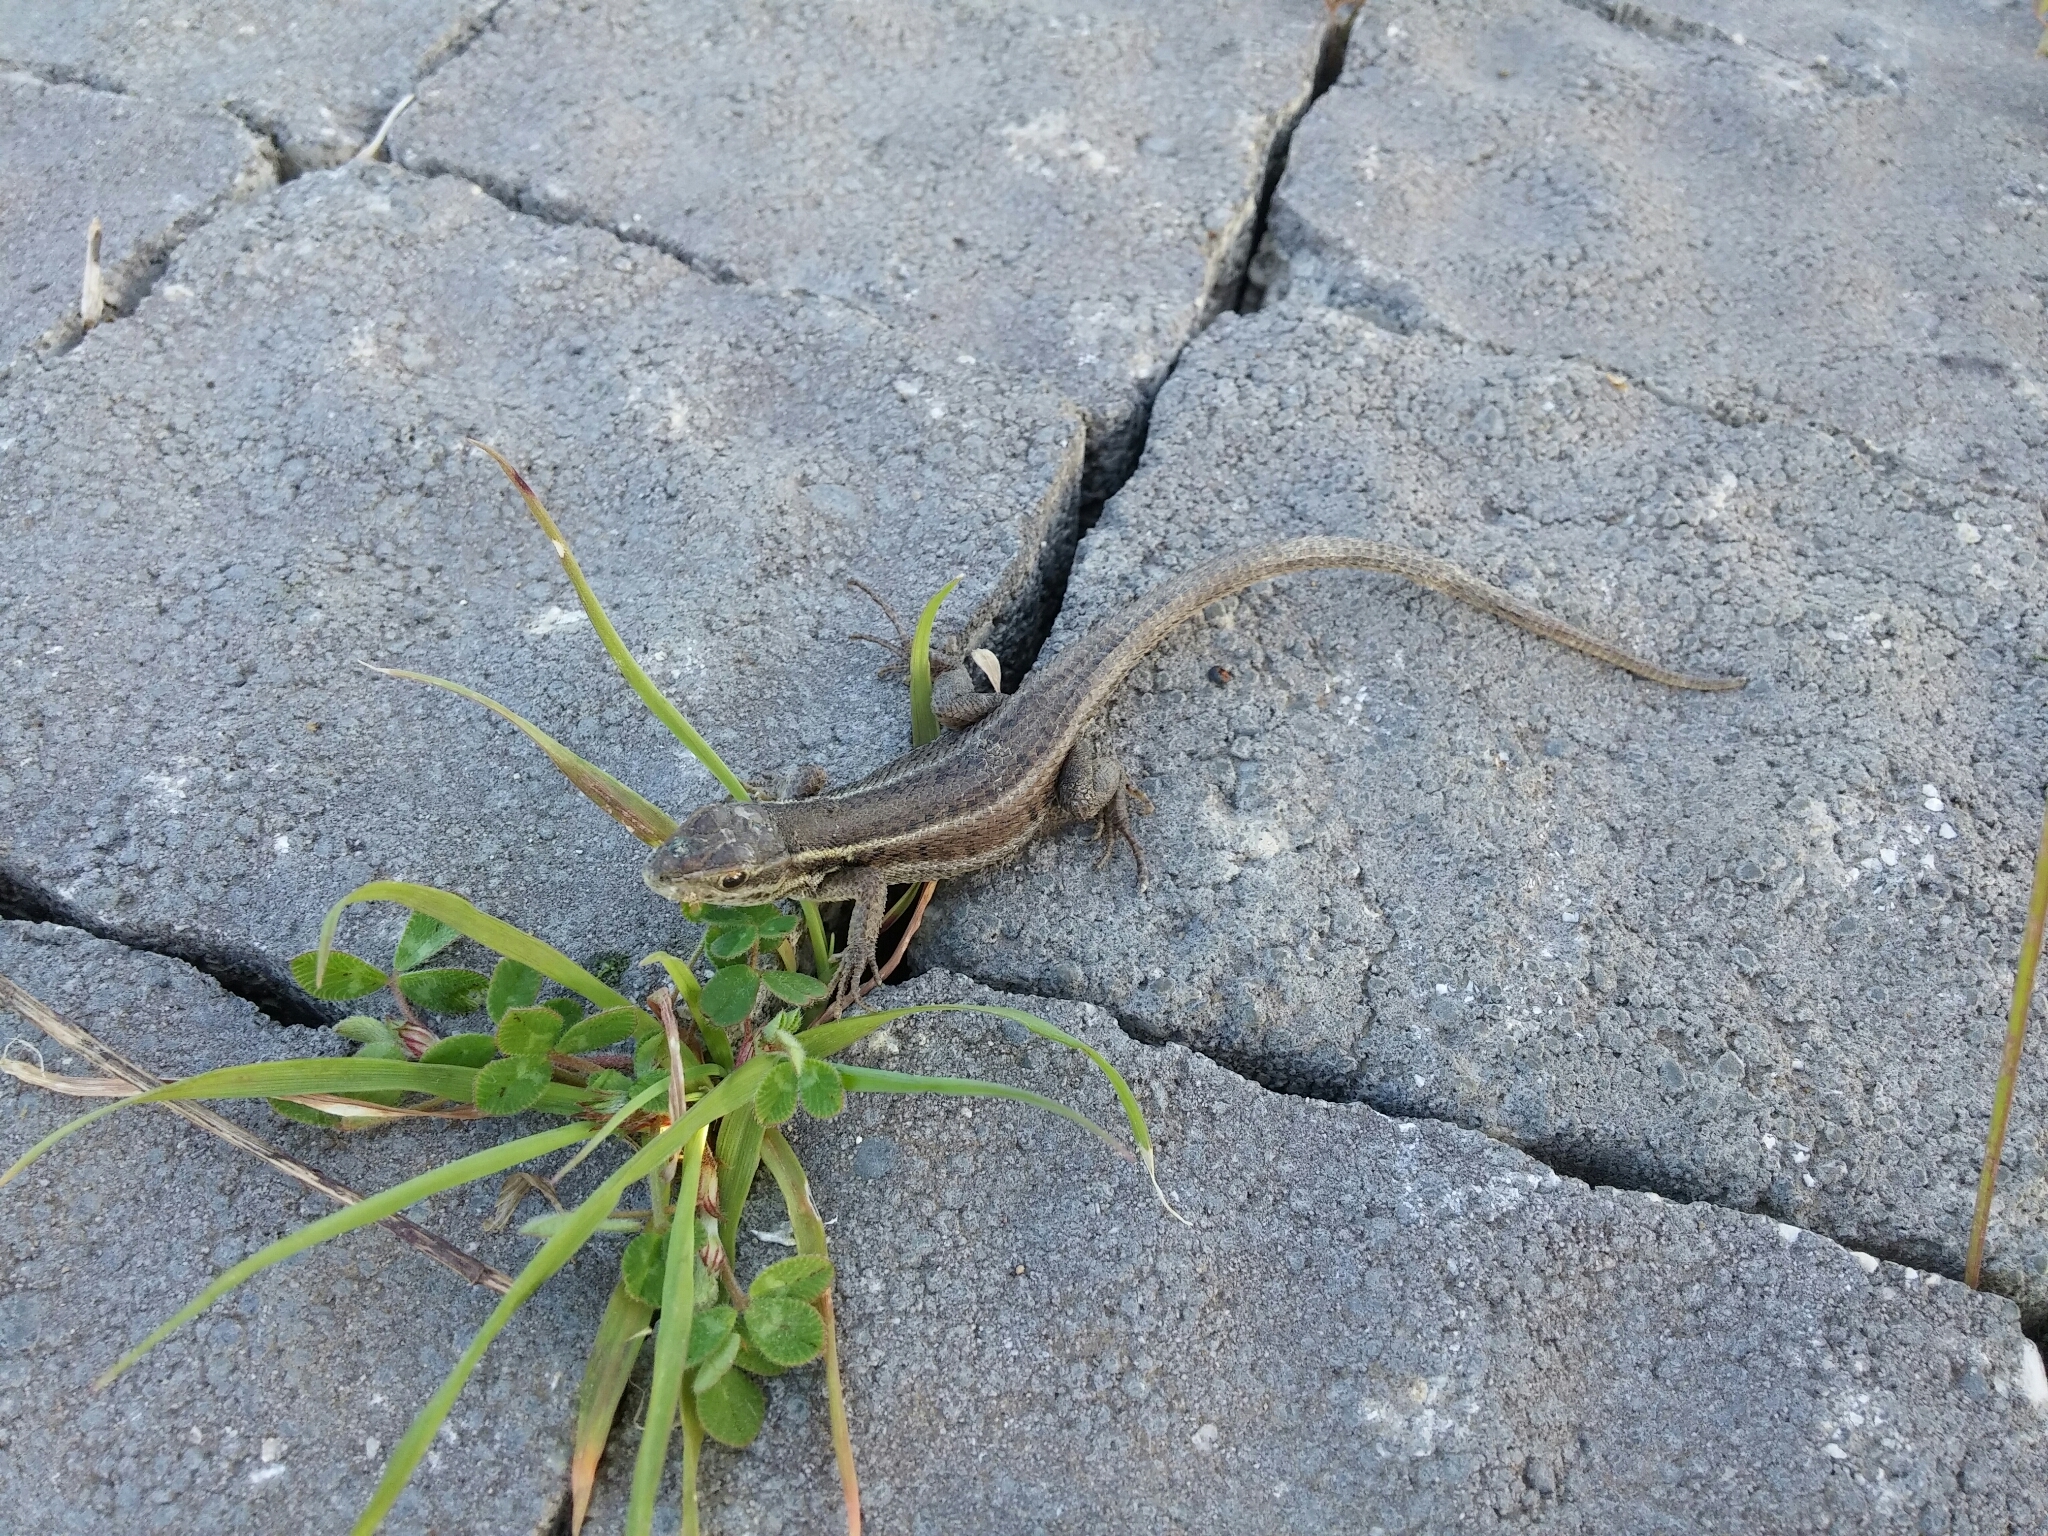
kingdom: Animalia
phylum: Chordata
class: Squamata
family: Lacertidae
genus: Ophisops
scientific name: Ophisops elegans
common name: Snake-eyed lizard
